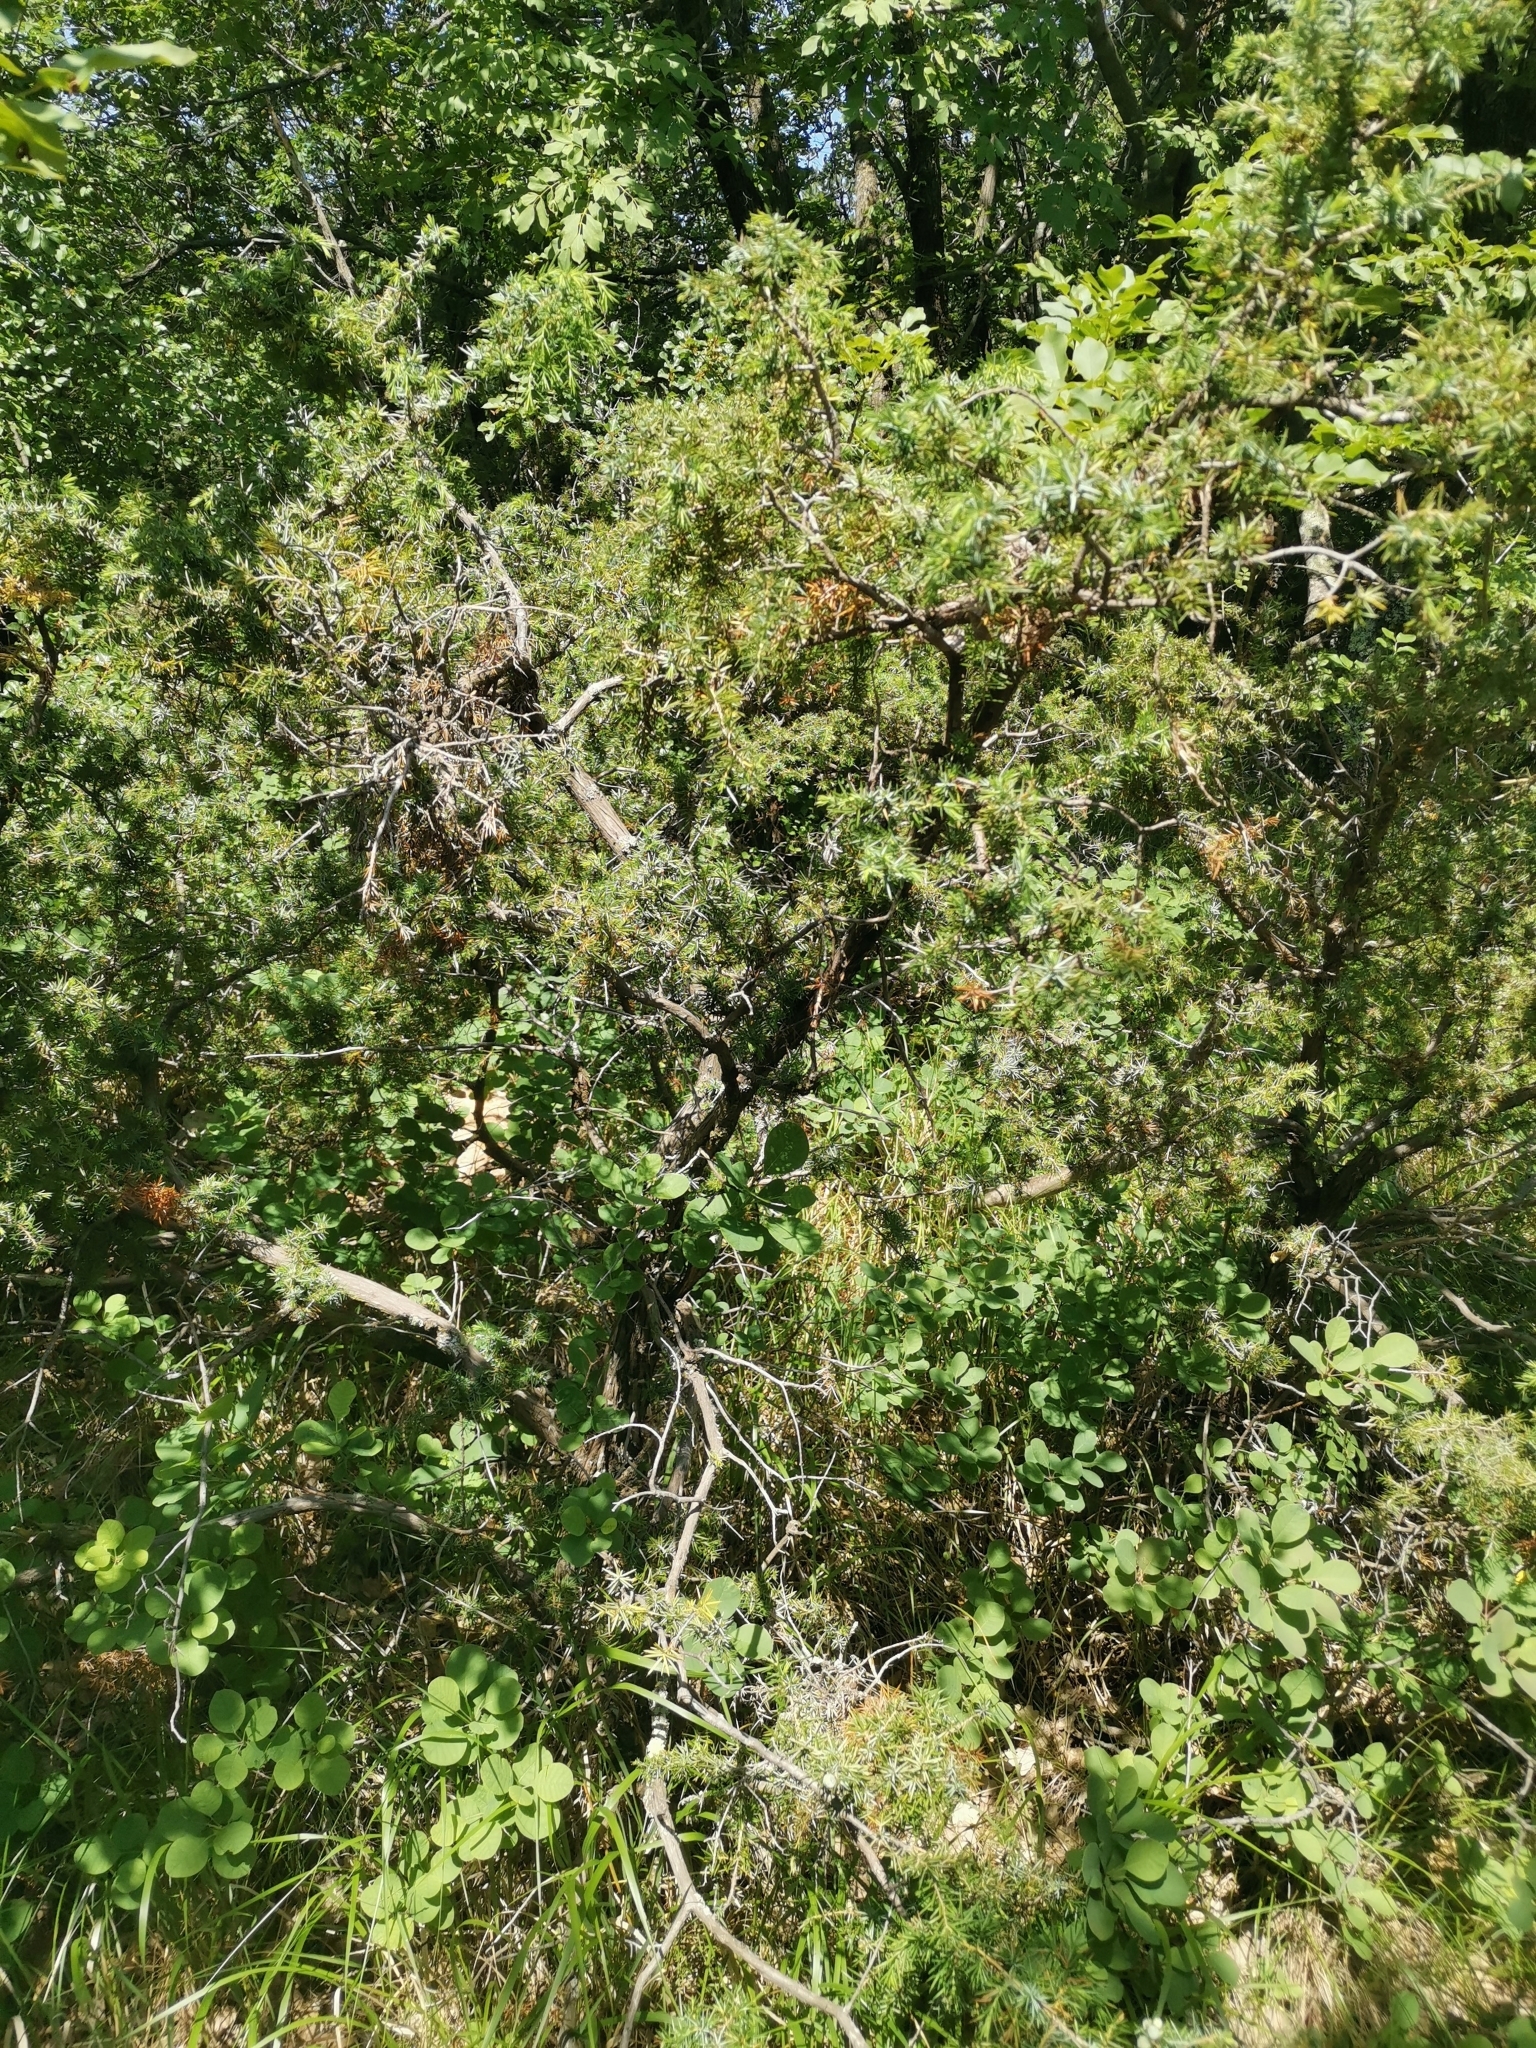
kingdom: Plantae
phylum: Tracheophyta
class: Pinopsida
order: Pinales
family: Cupressaceae
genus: Juniperus
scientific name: Juniperus communis
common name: Common juniper
